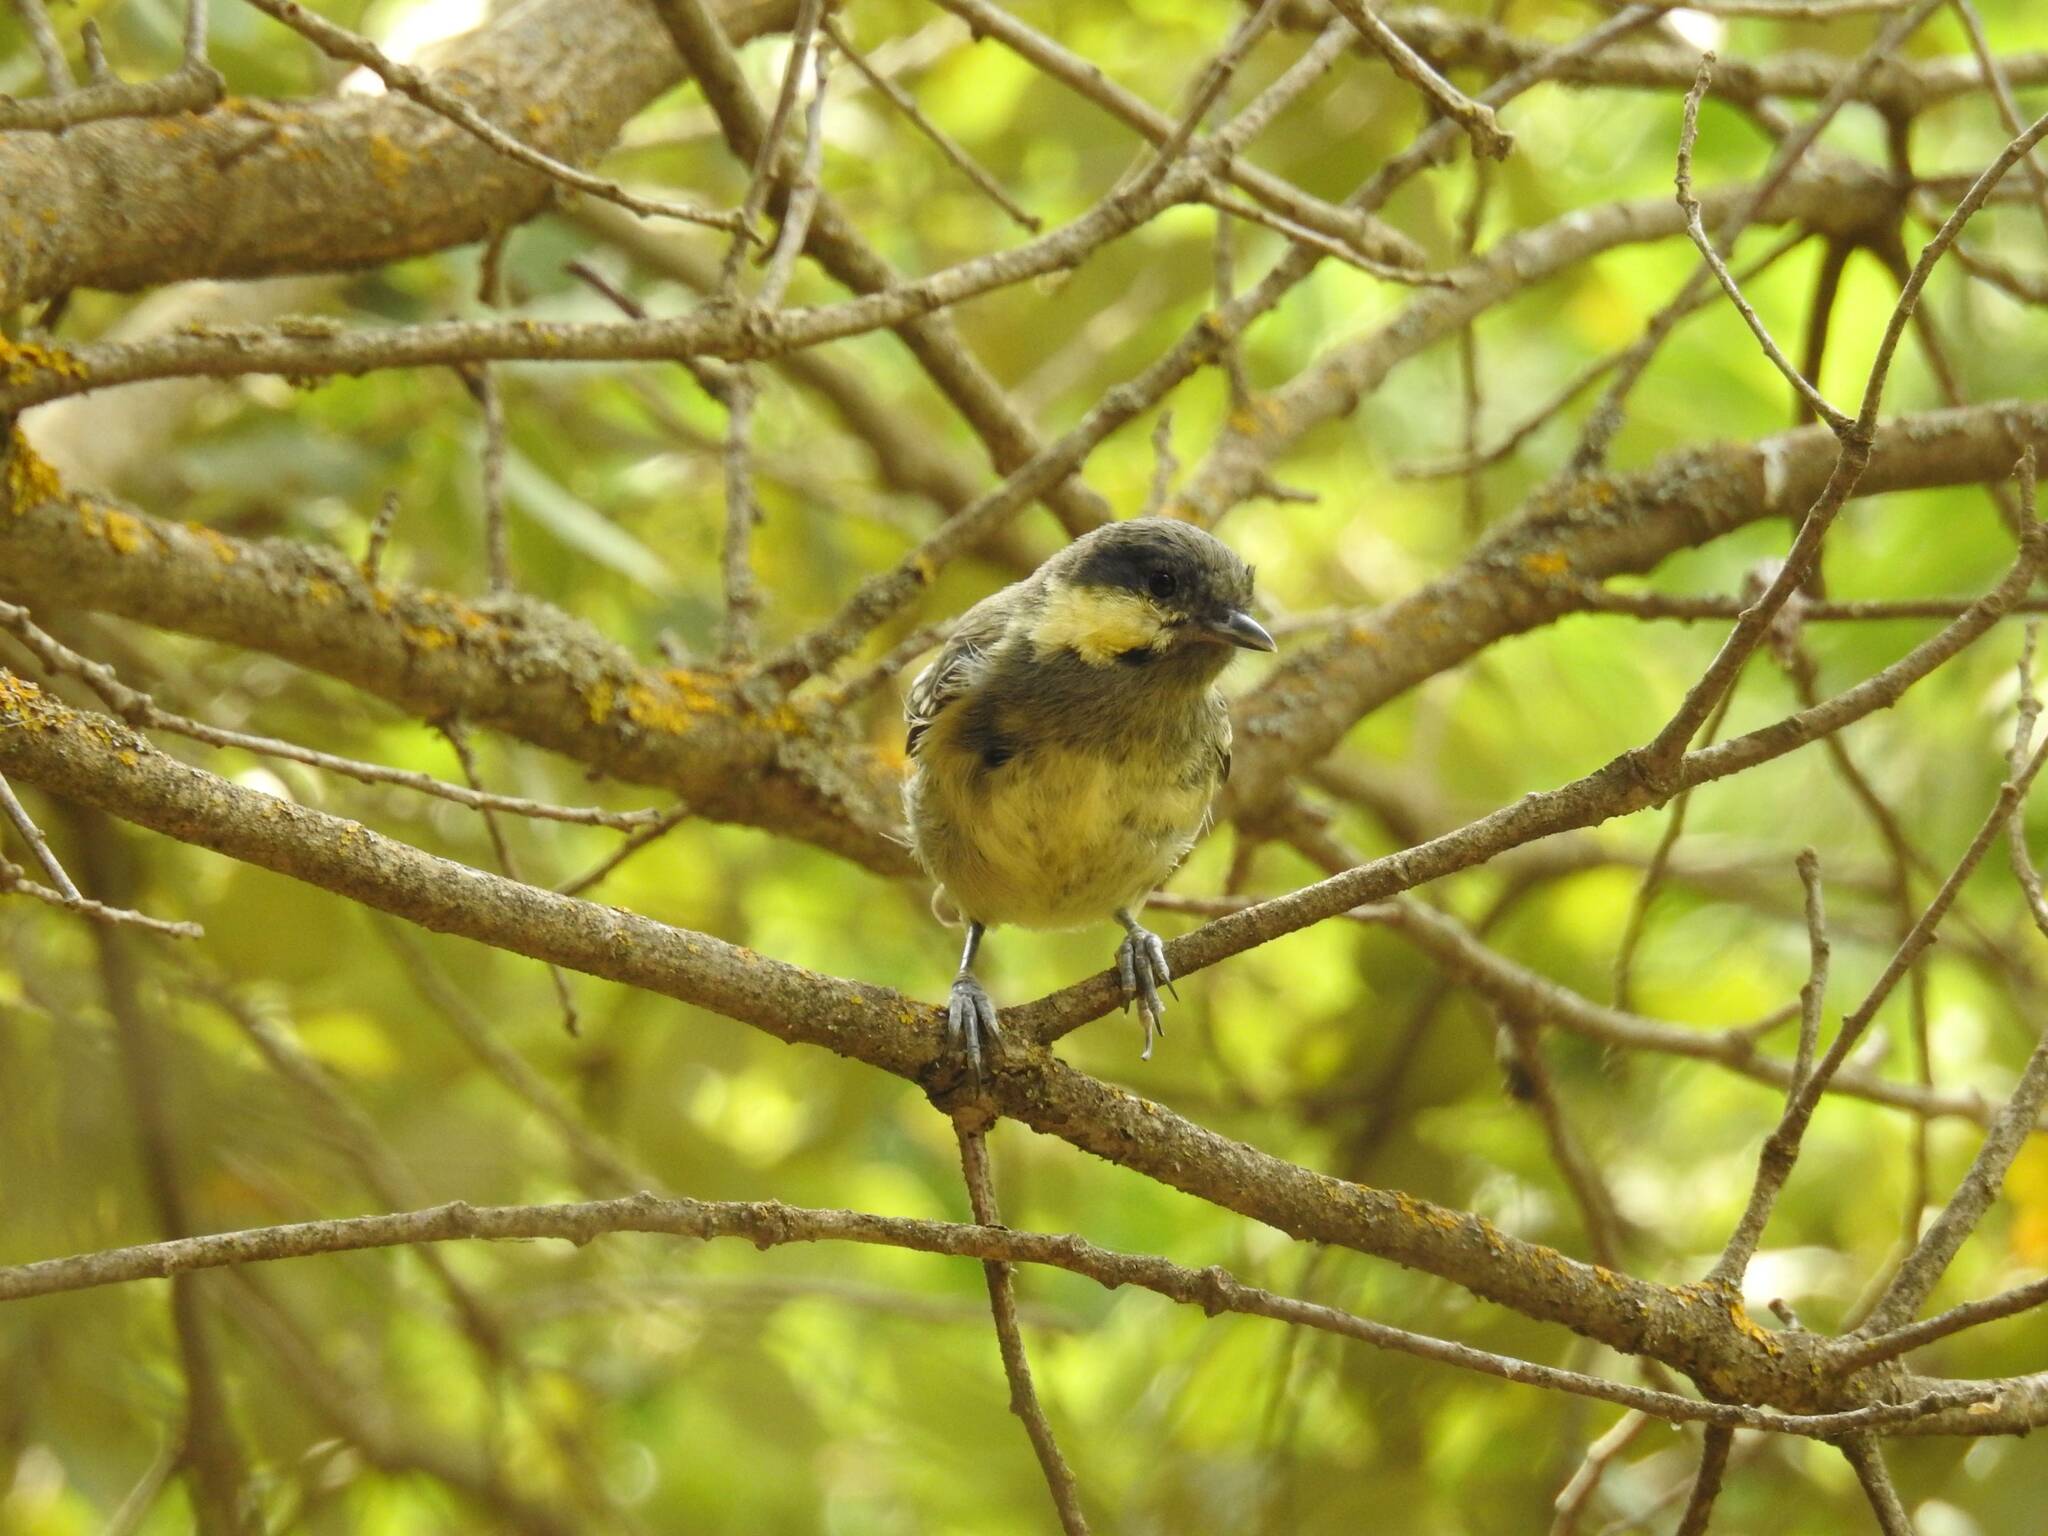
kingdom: Animalia
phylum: Chordata
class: Aves
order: Passeriformes
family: Paridae
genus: Periparus
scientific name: Periparus ater
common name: Coal tit
